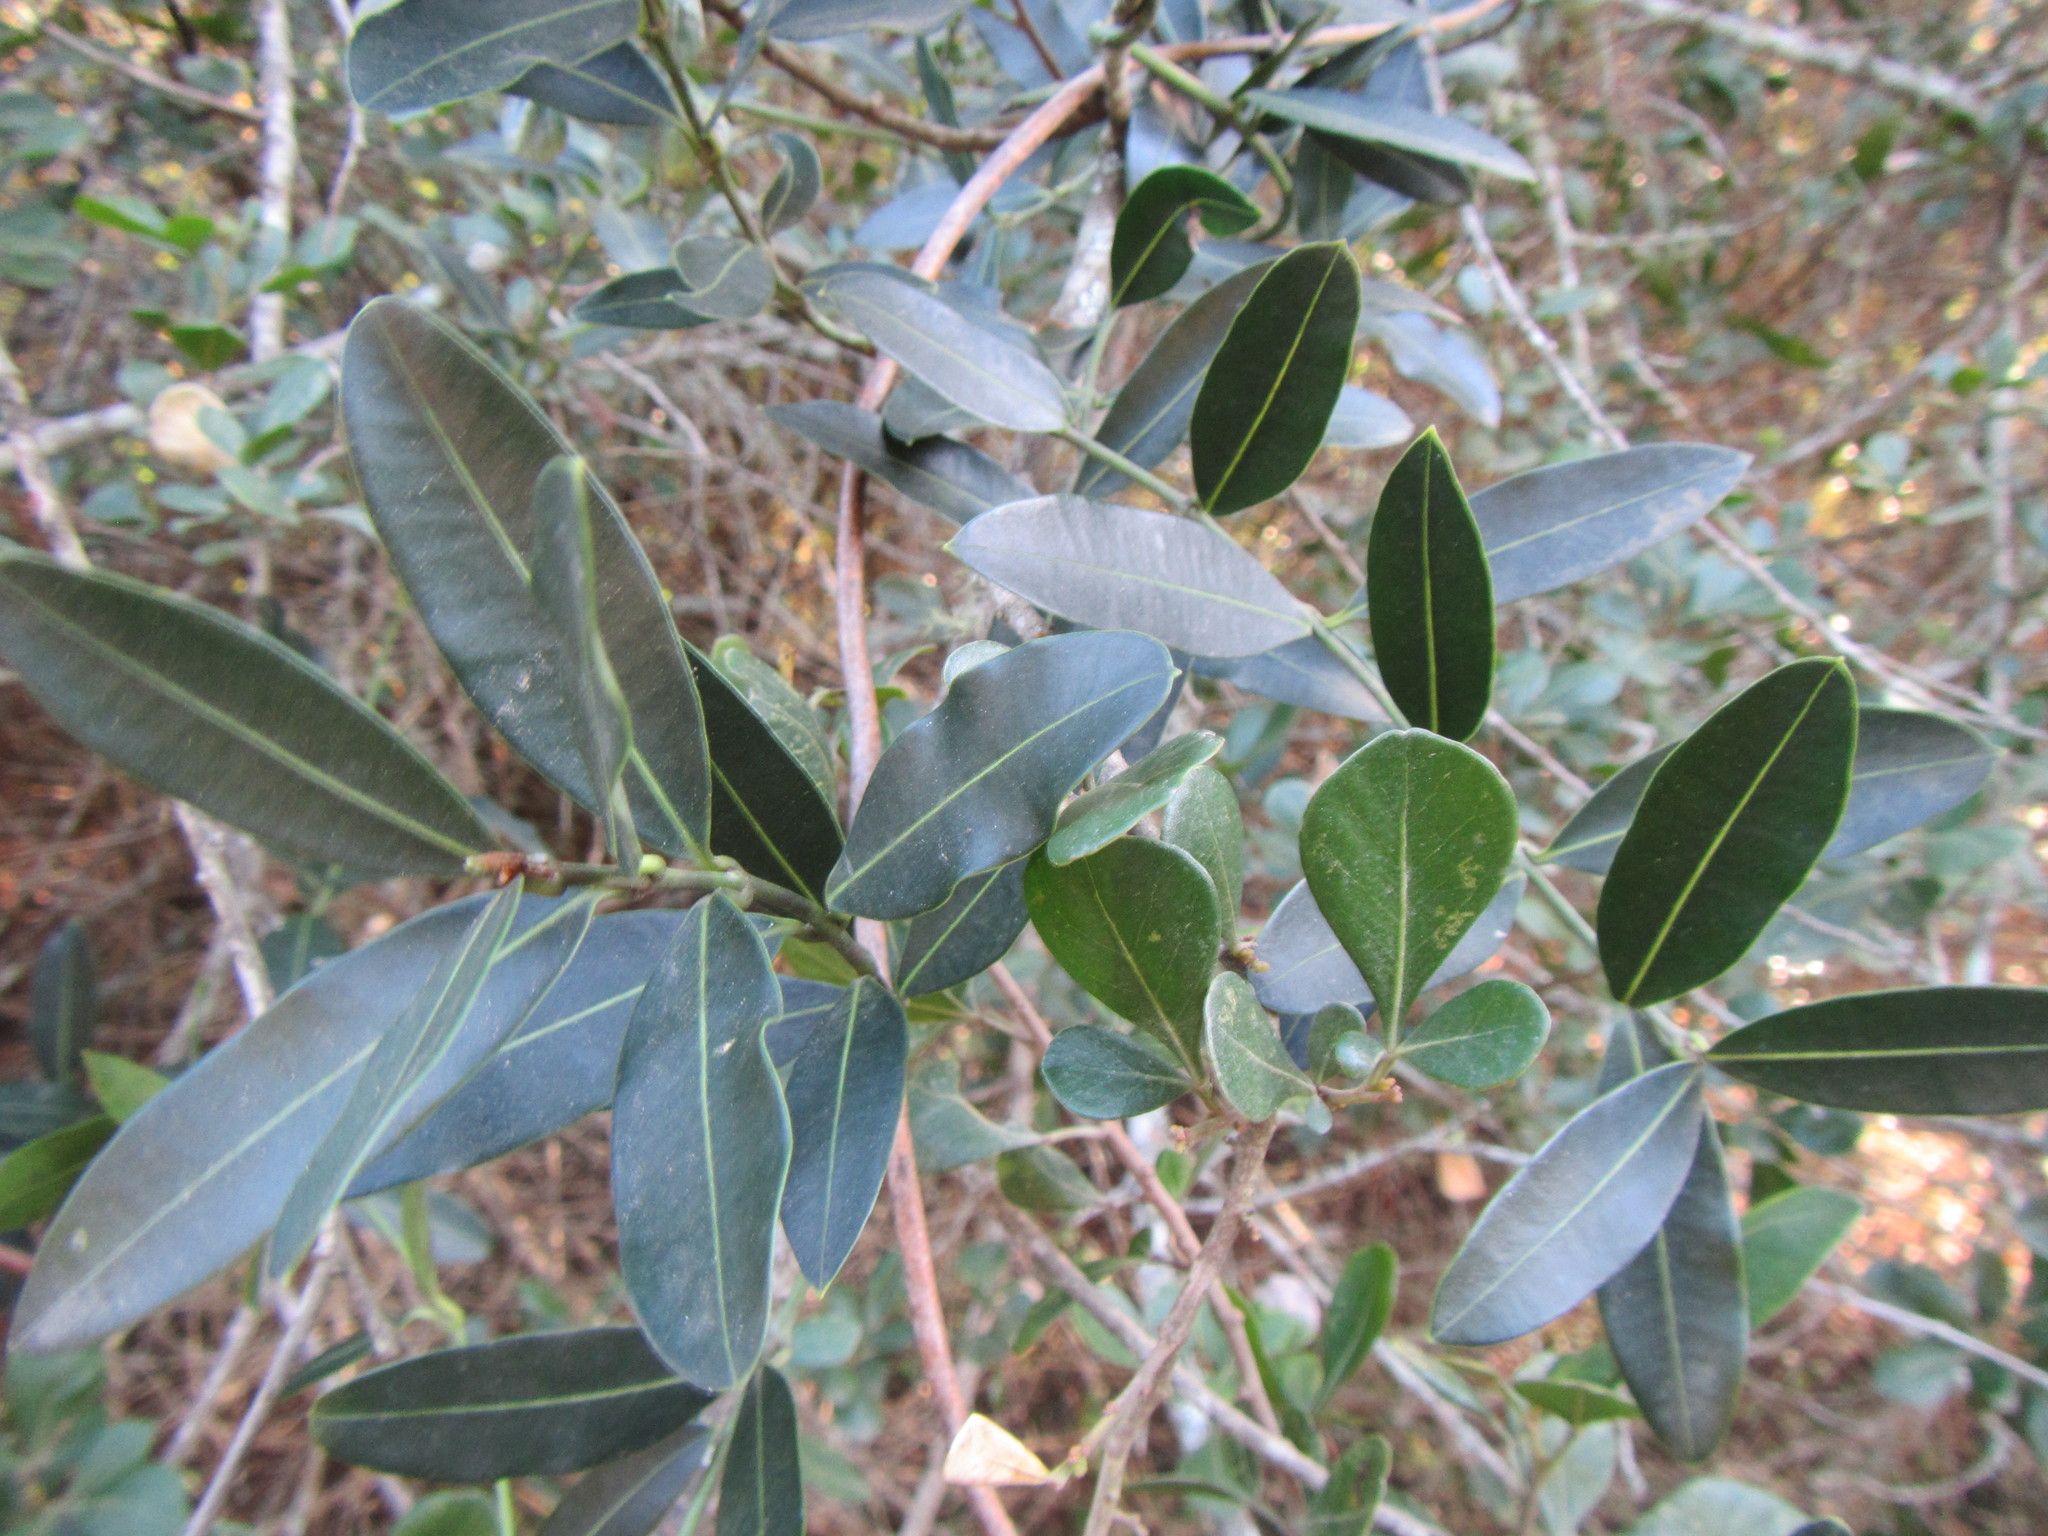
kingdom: Plantae
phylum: Tracheophyta
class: Magnoliopsida
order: Gentianales
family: Apocynaceae
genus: Secamone
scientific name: Secamone alpini
